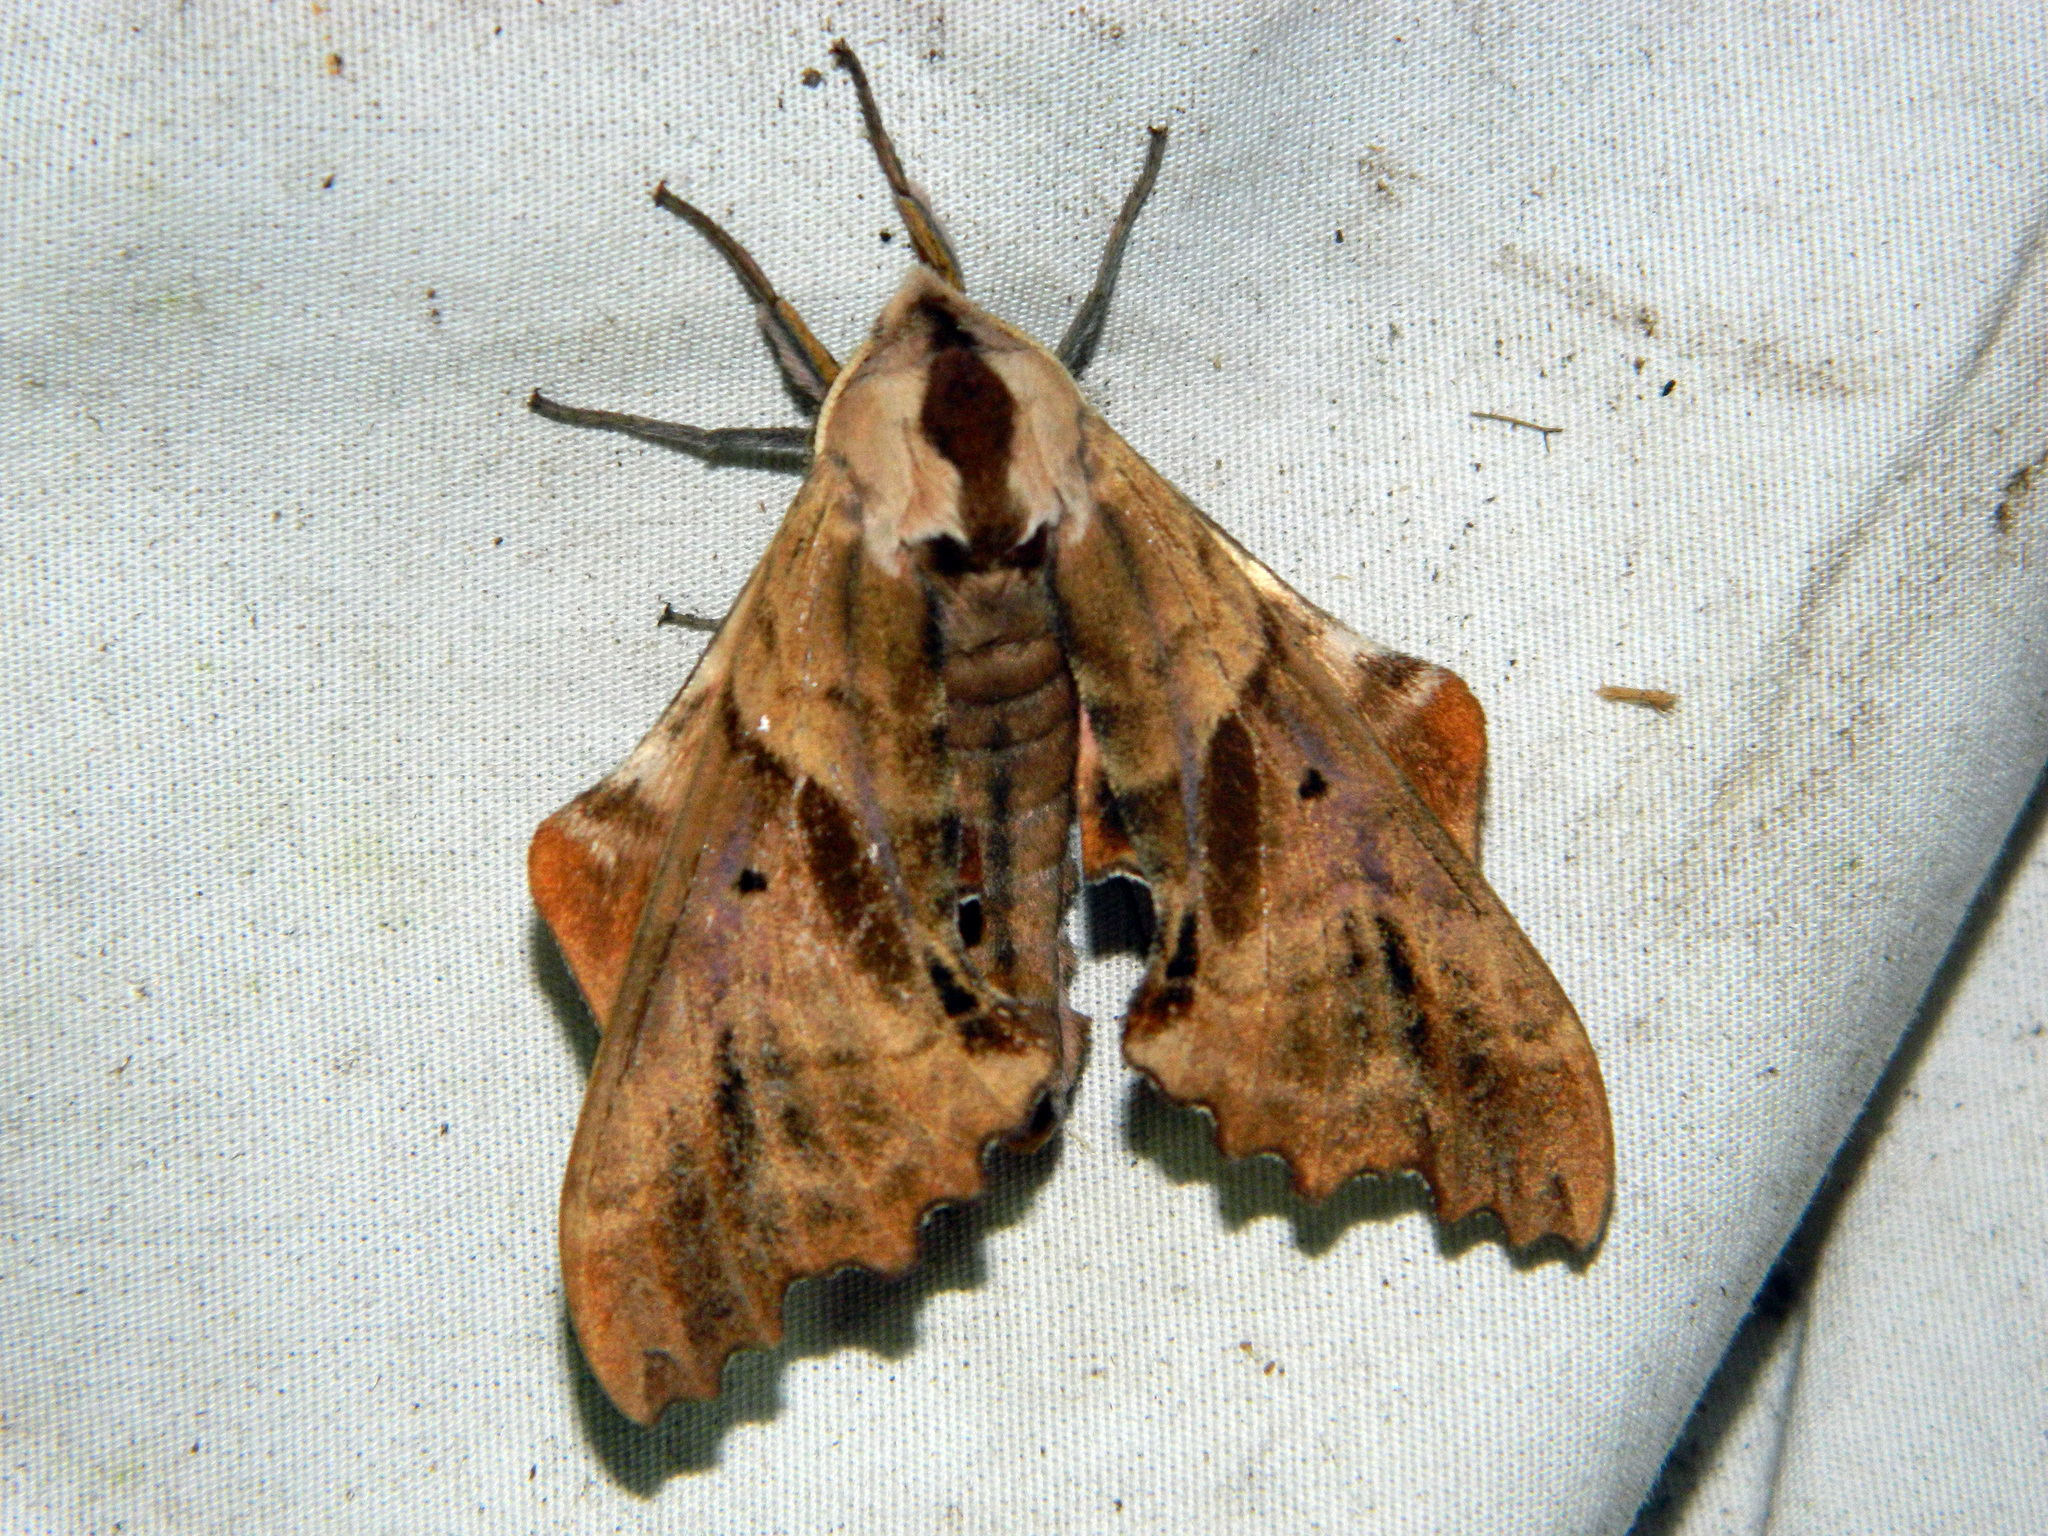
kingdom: Animalia
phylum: Arthropoda
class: Insecta
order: Lepidoptera
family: Sphingidae
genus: Paonias
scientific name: Paonias excaecata
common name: Blind-eyed sphinx
